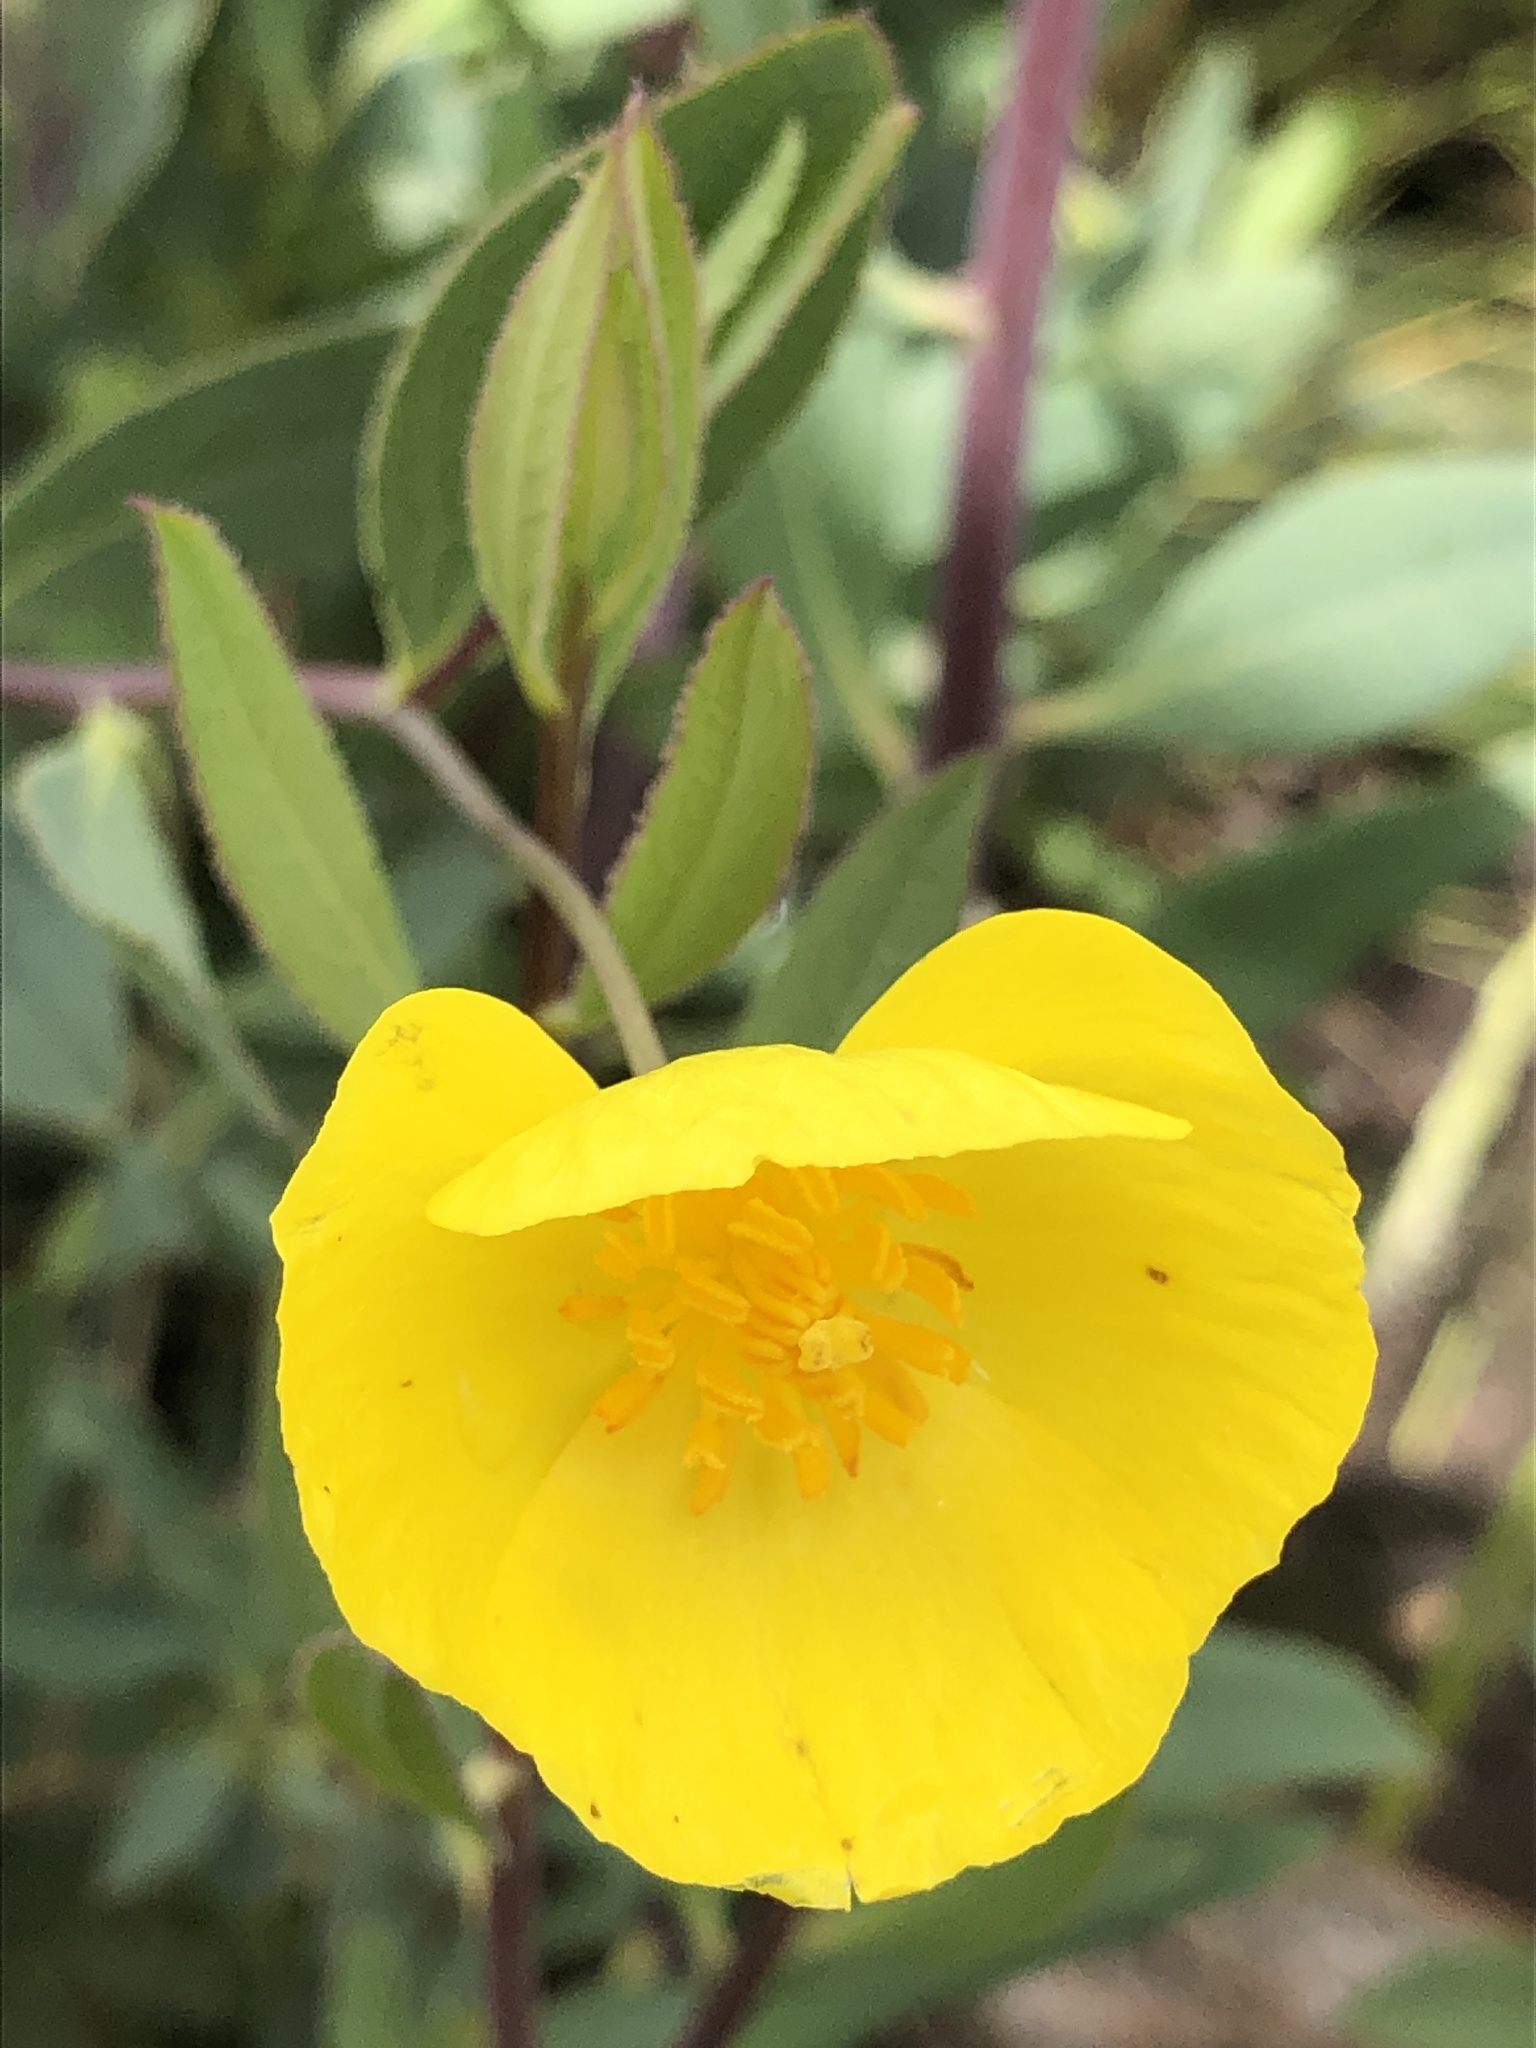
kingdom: Plantae
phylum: Tracheophyta
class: Magnoliopsida
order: Ranunculales
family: Papaveraceae
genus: Dendromecon
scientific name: Dendromecon rigida
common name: Tree poppy
